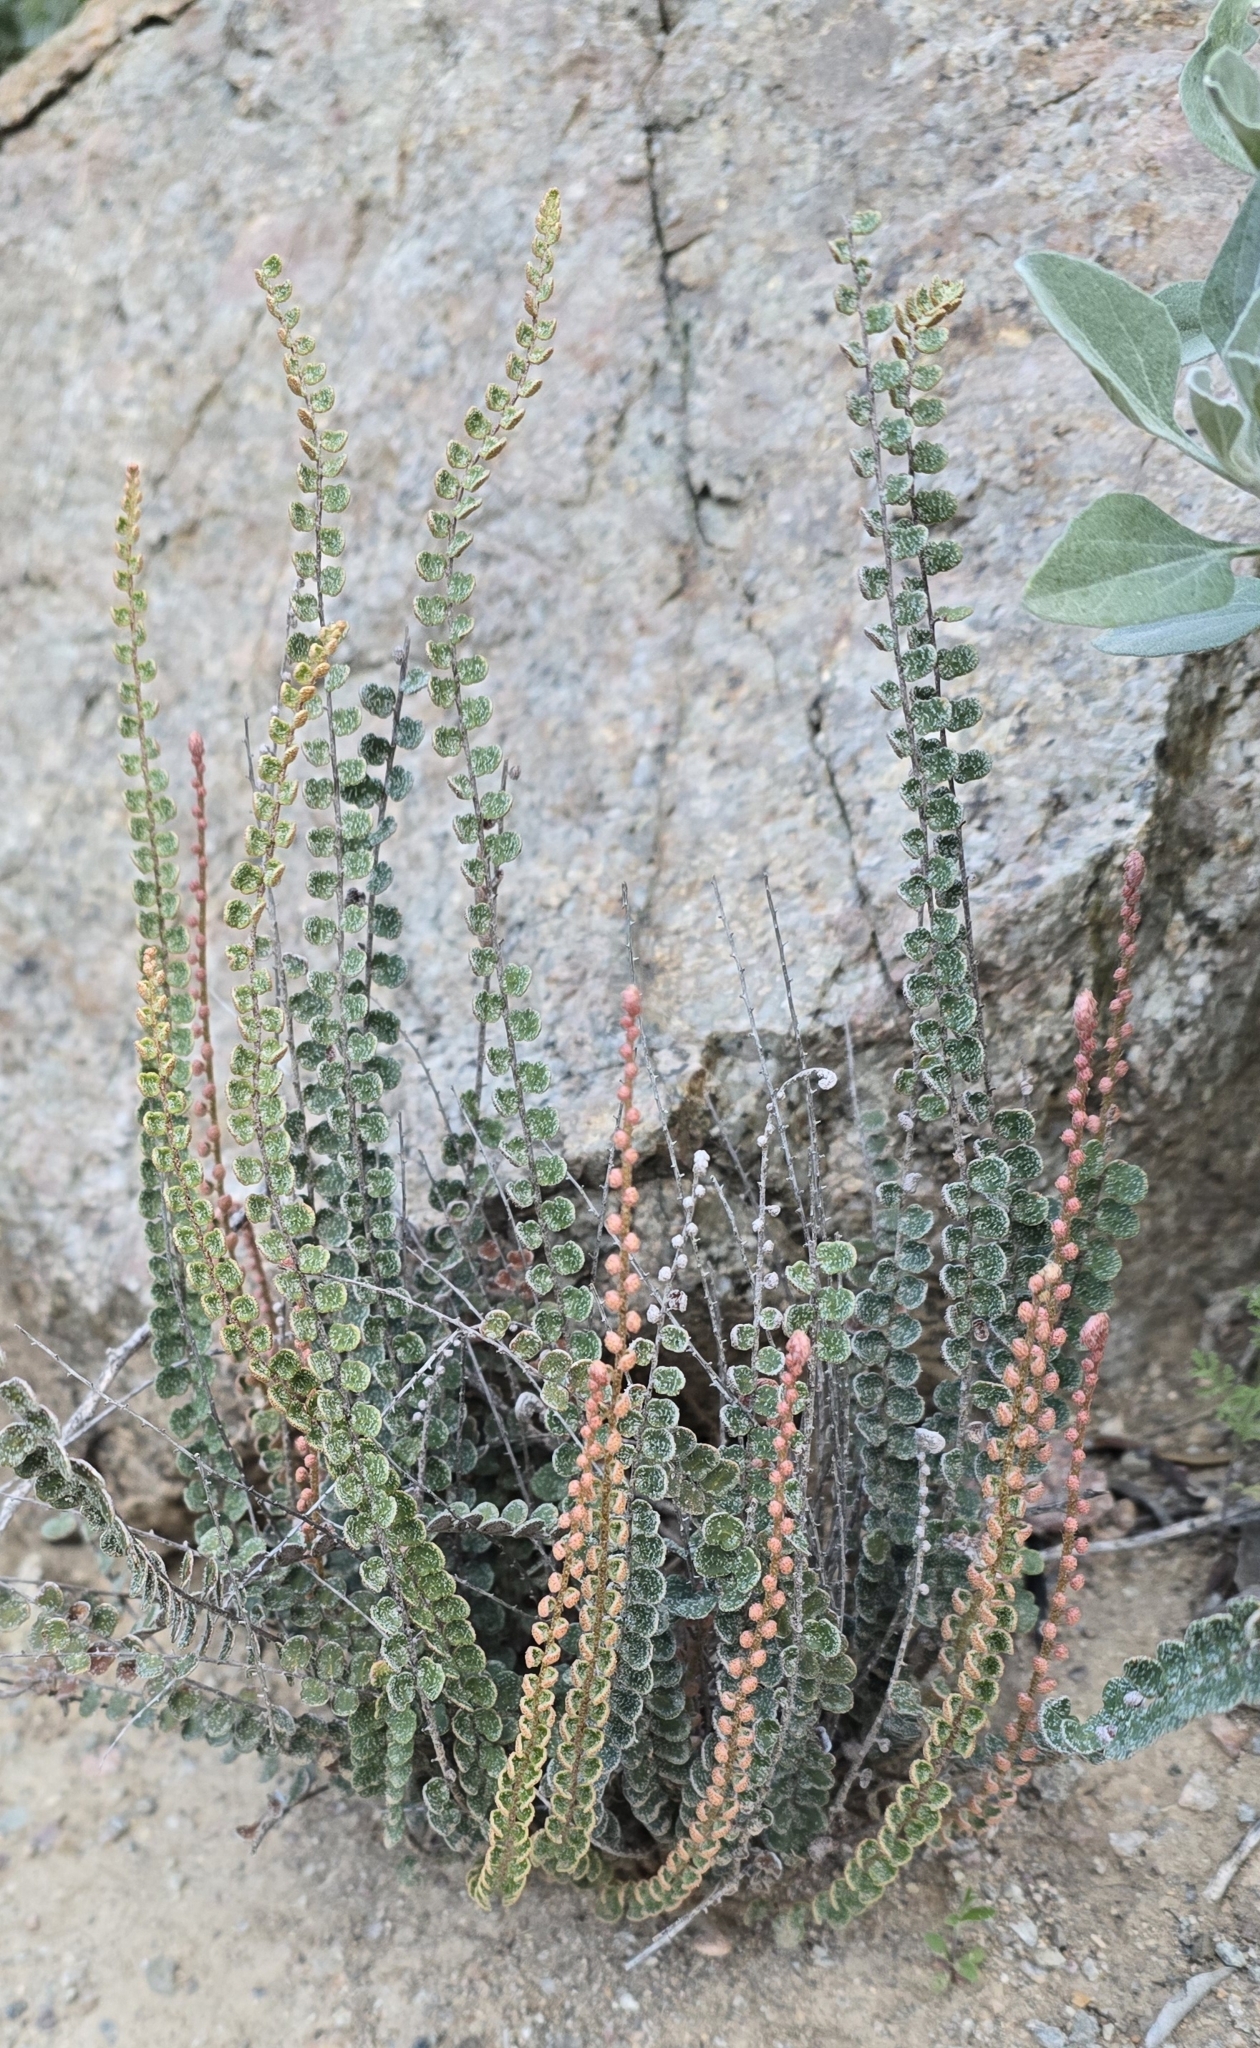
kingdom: Plantae
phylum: Tracheophyta
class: Polypodiopsida
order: Polypodiales
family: Pteridaceae
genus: Astrolepis
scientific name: Astrolepis cochisensis
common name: Scaly cloak fern
